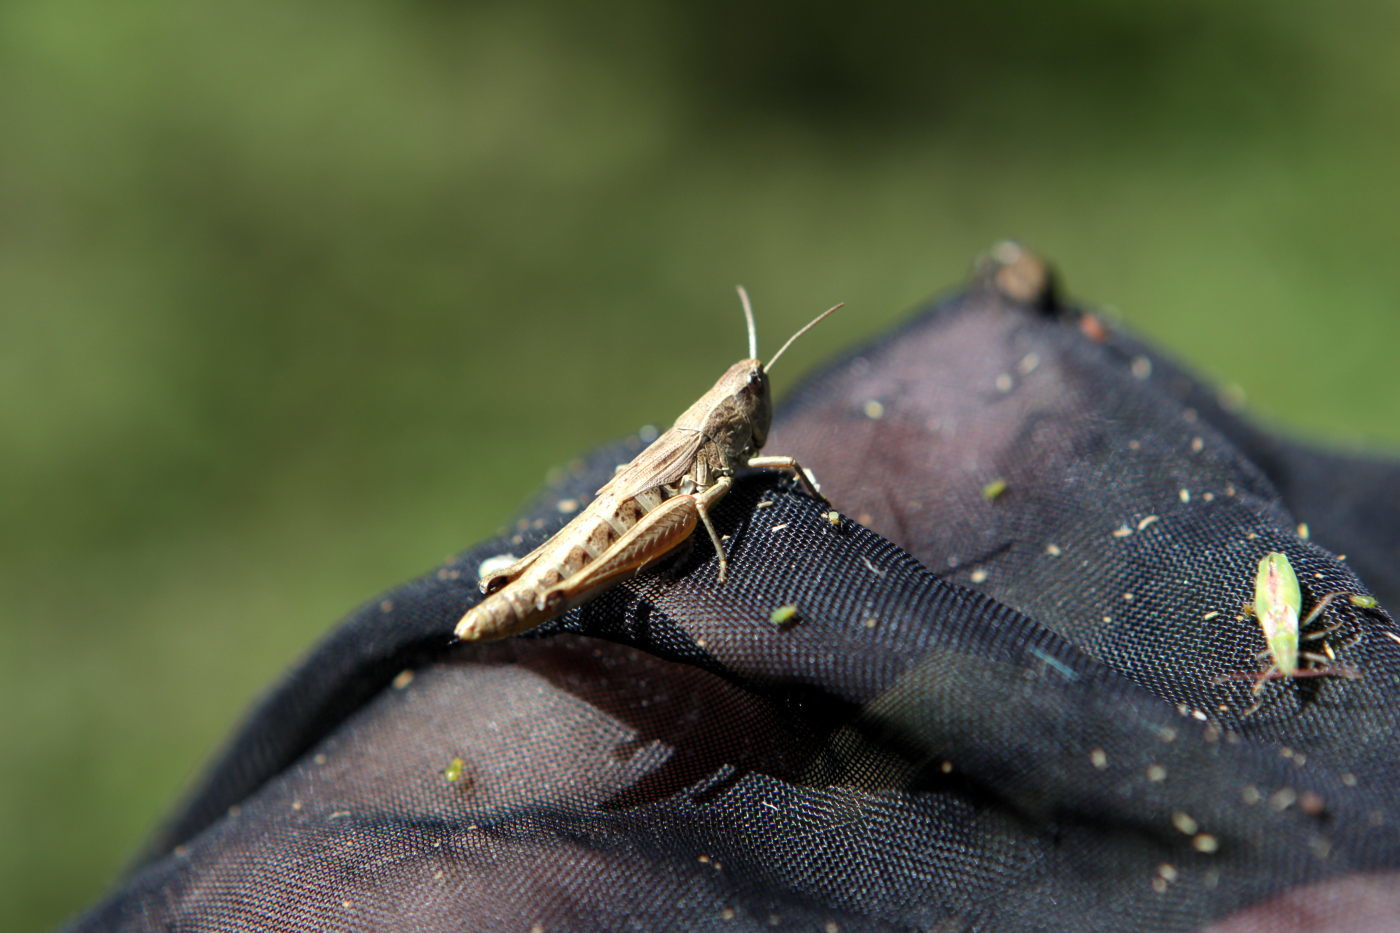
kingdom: Animalia
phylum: Arthropoda
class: Insecta
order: Orthoptera
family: Acrididae
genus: Pseudochorthippus
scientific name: Pseudochorthippus parallelus
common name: Meadow grasshopper
